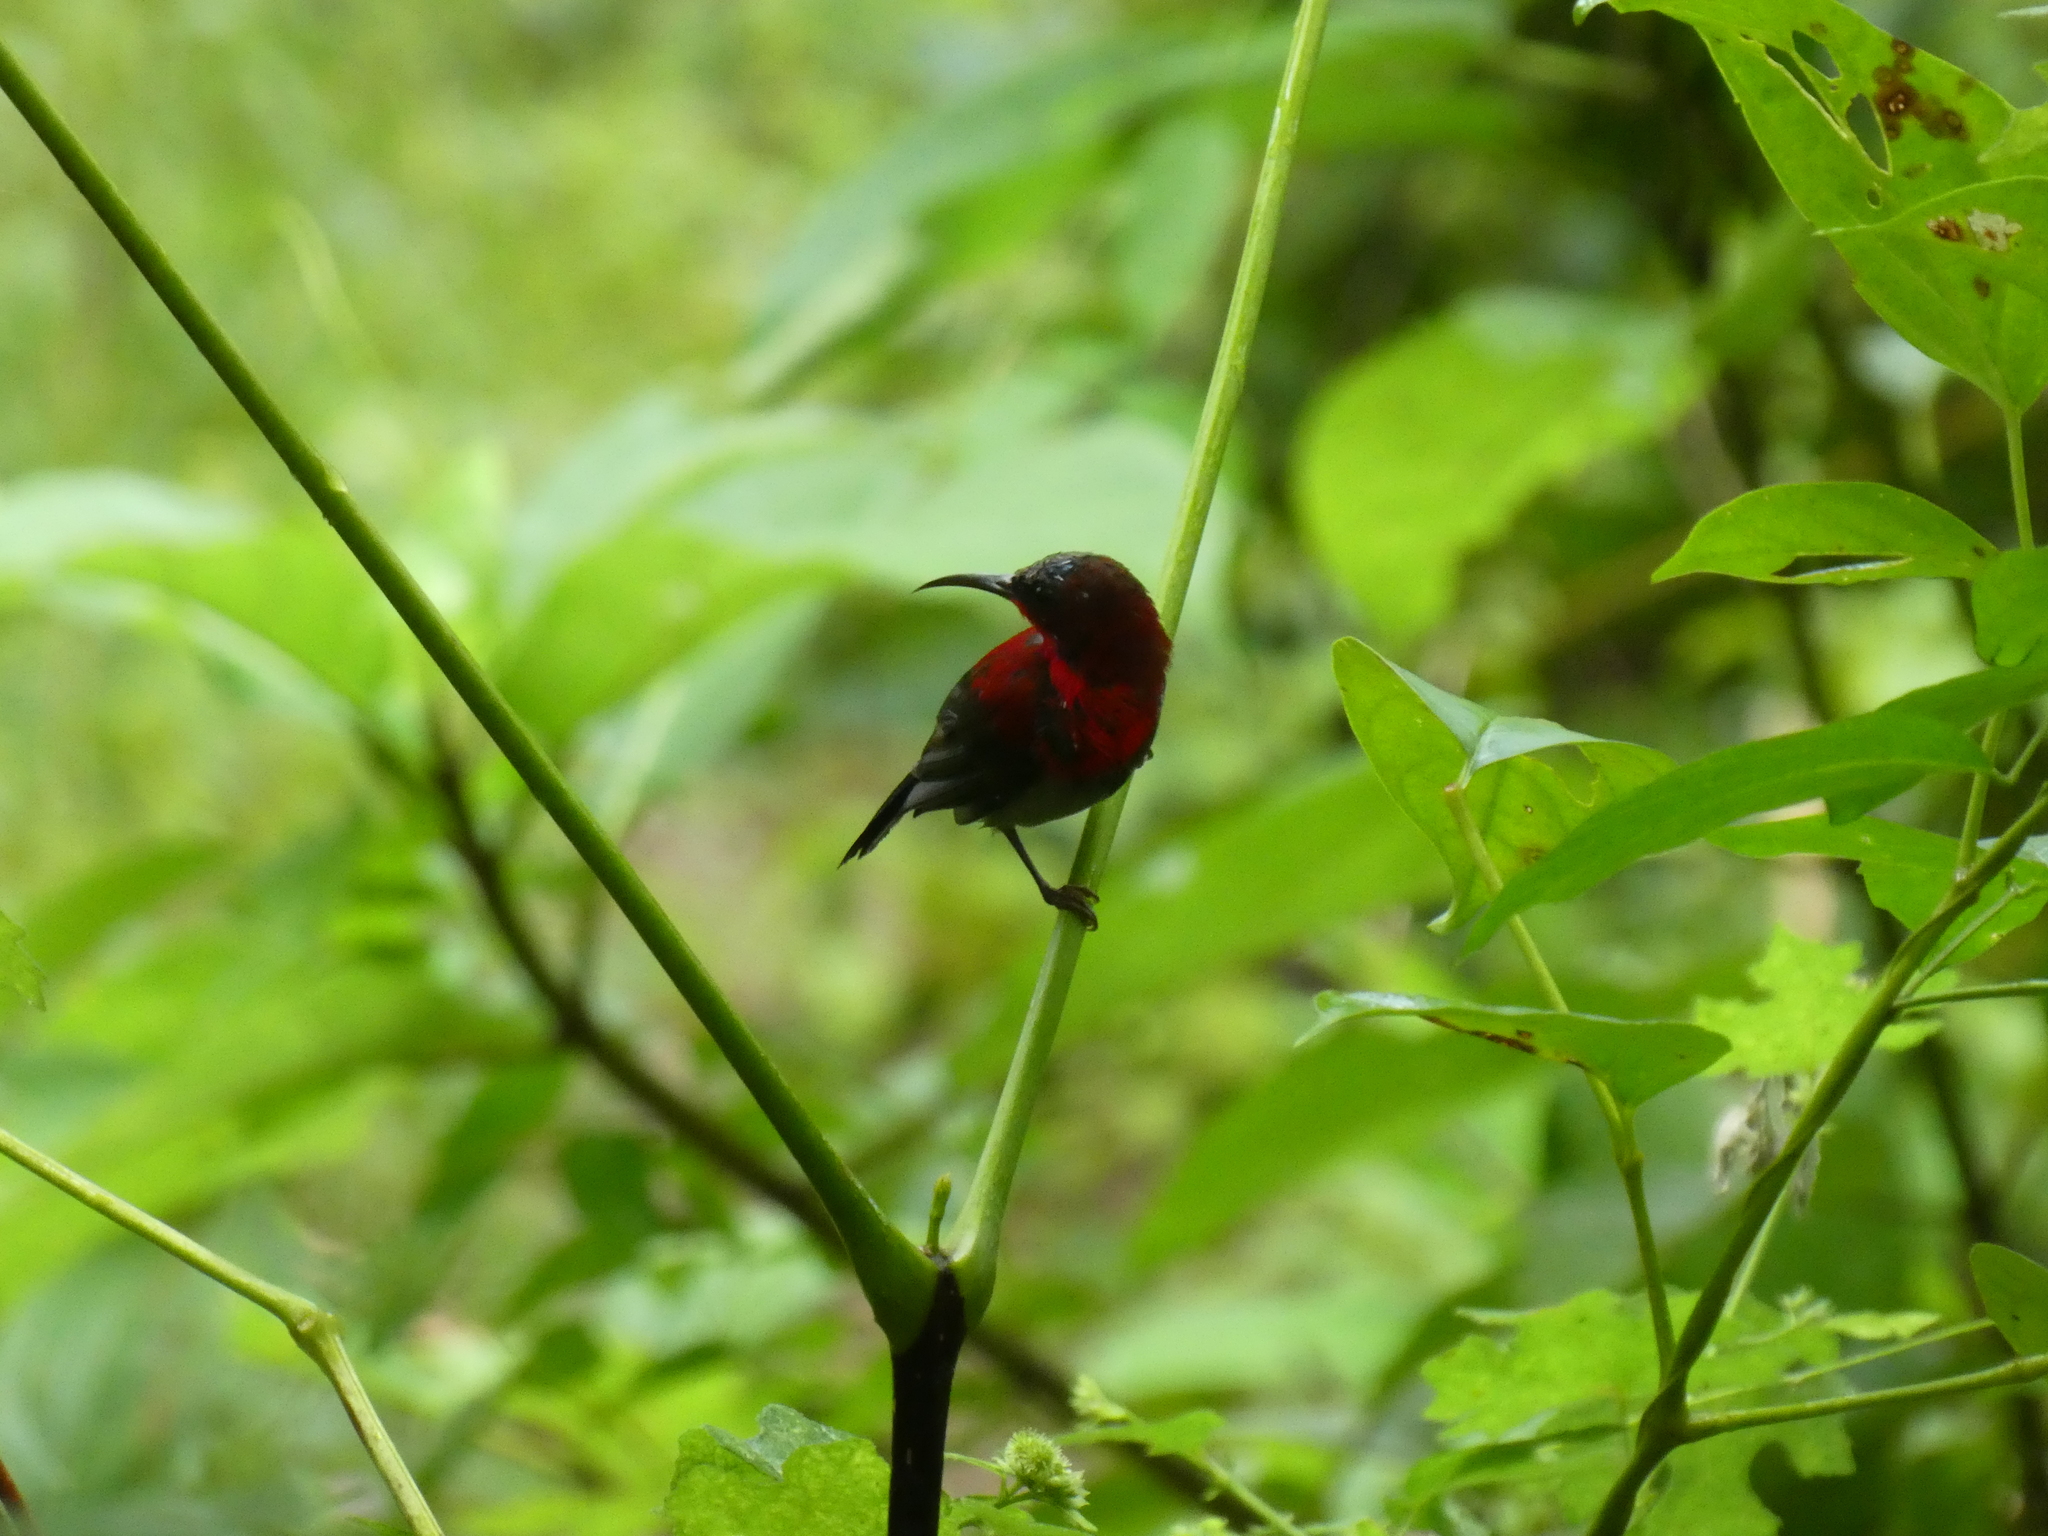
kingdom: Animalia
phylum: Chordata
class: Aves
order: Passeriformes
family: Nectariniidae
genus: Aethopyga
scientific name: Aethopyga siparaja
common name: Crimson sunbird
